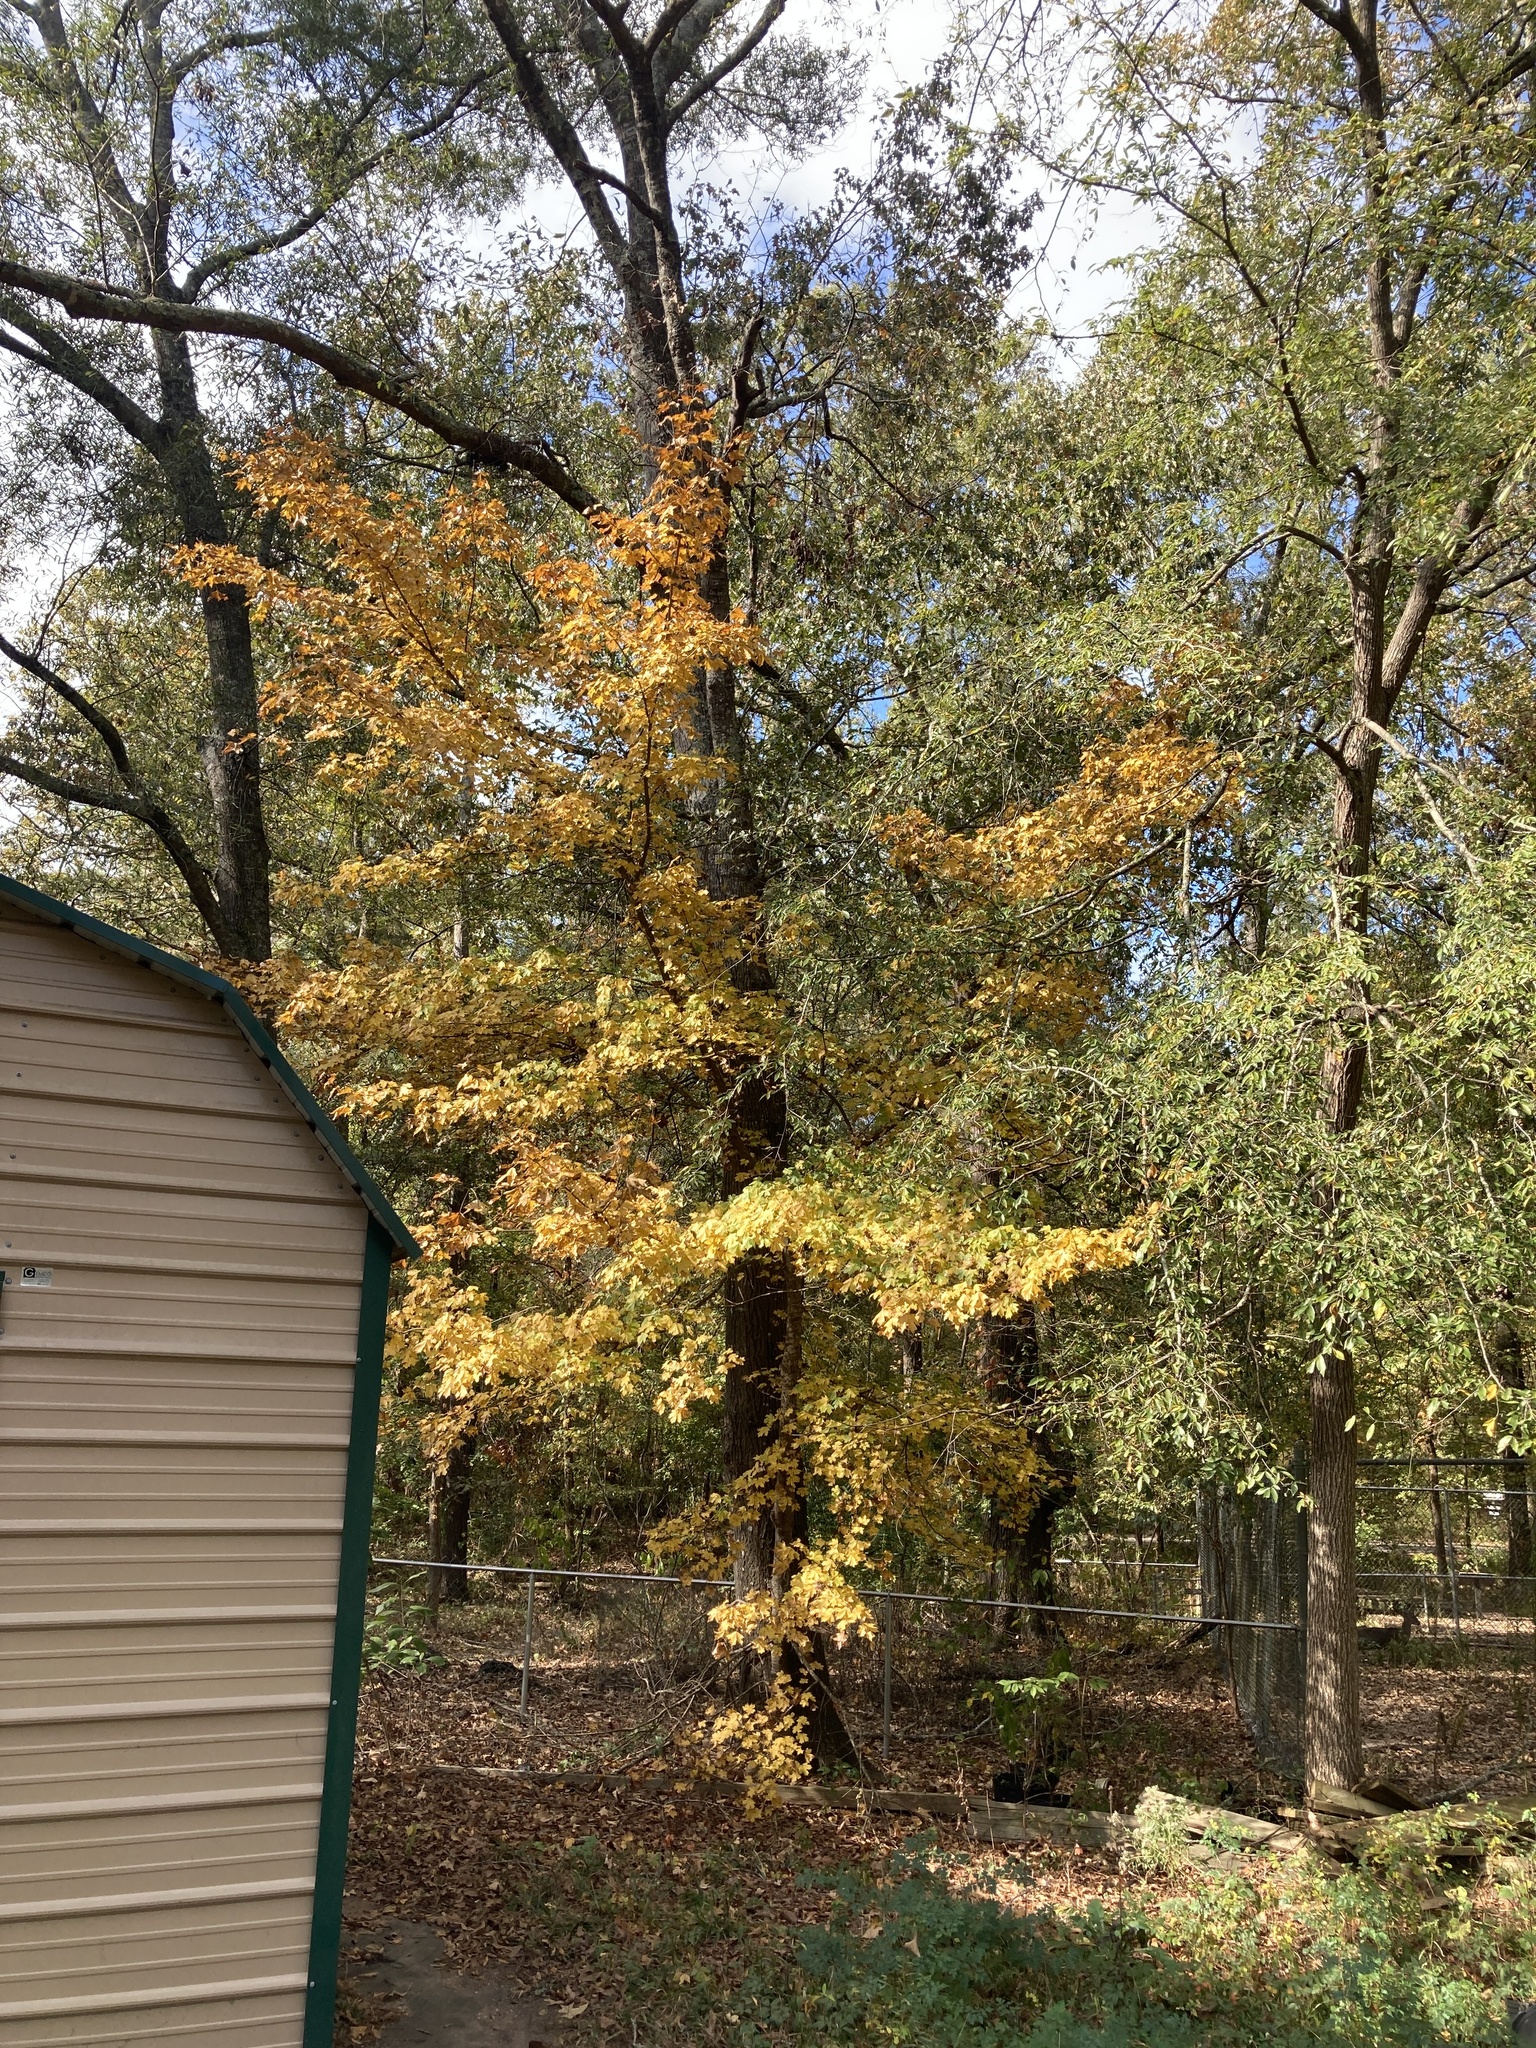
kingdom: Plantae
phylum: Tracheophyta
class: Magnoliopsida
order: Sapindales
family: Sapindaceae
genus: Acer
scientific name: Acer floridanum
